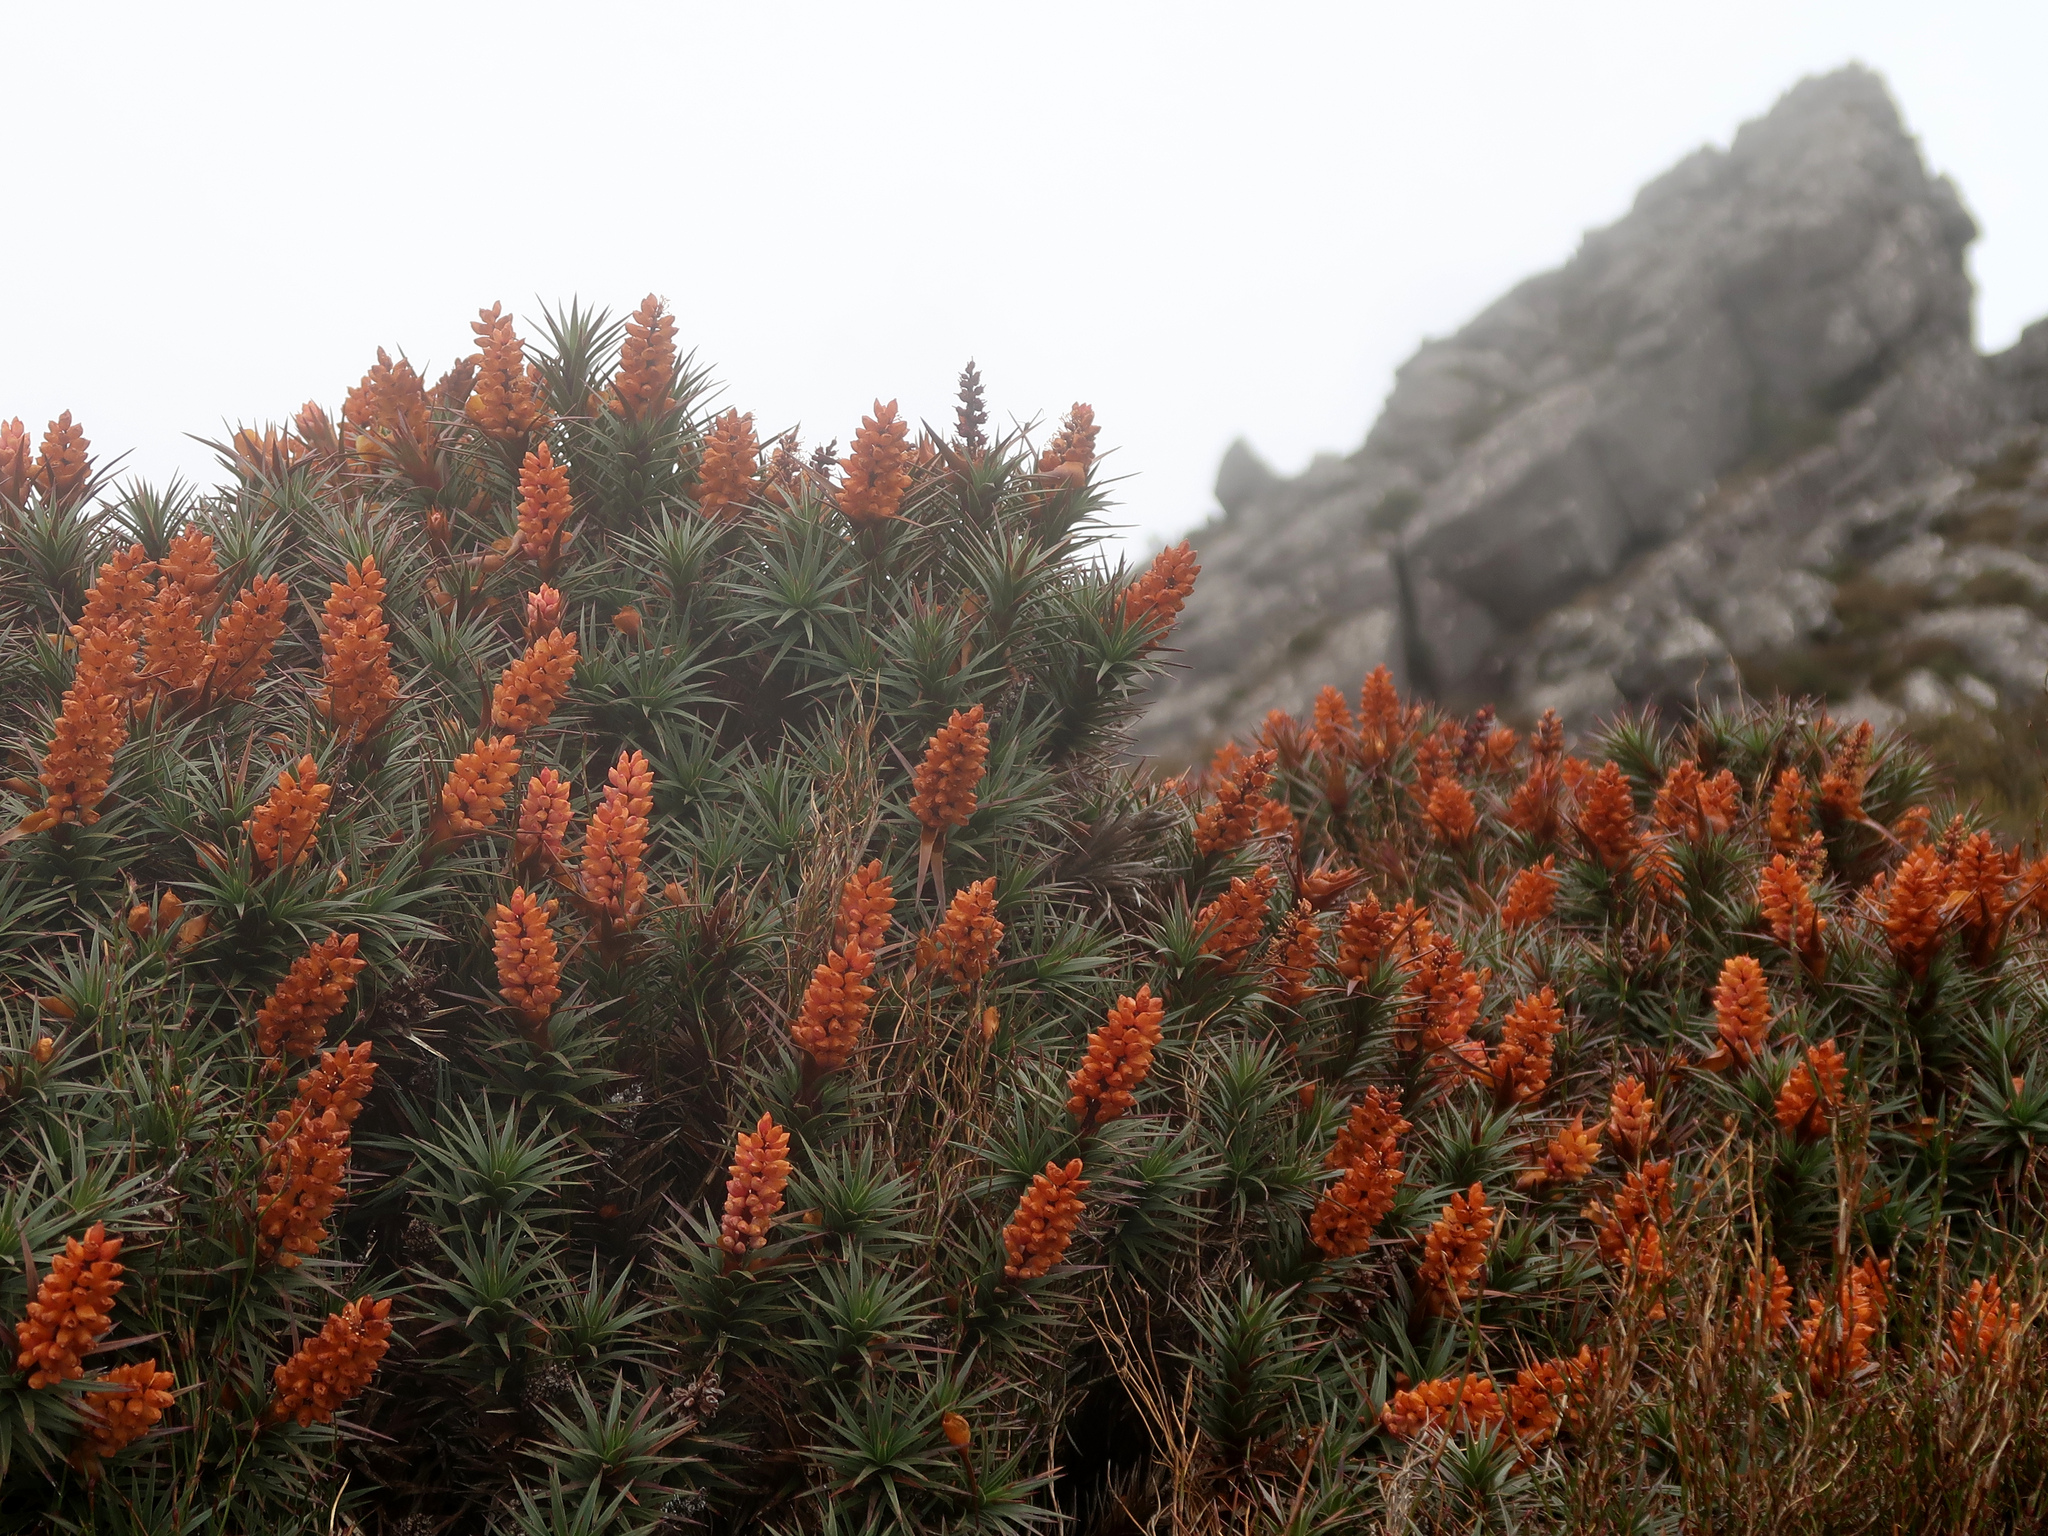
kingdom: Plantae
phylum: Tracheophyta
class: Magnoliopsida
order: Ericales
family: Ericaceae
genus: Dracophyllum
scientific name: Dracophyllum persistentifolium
